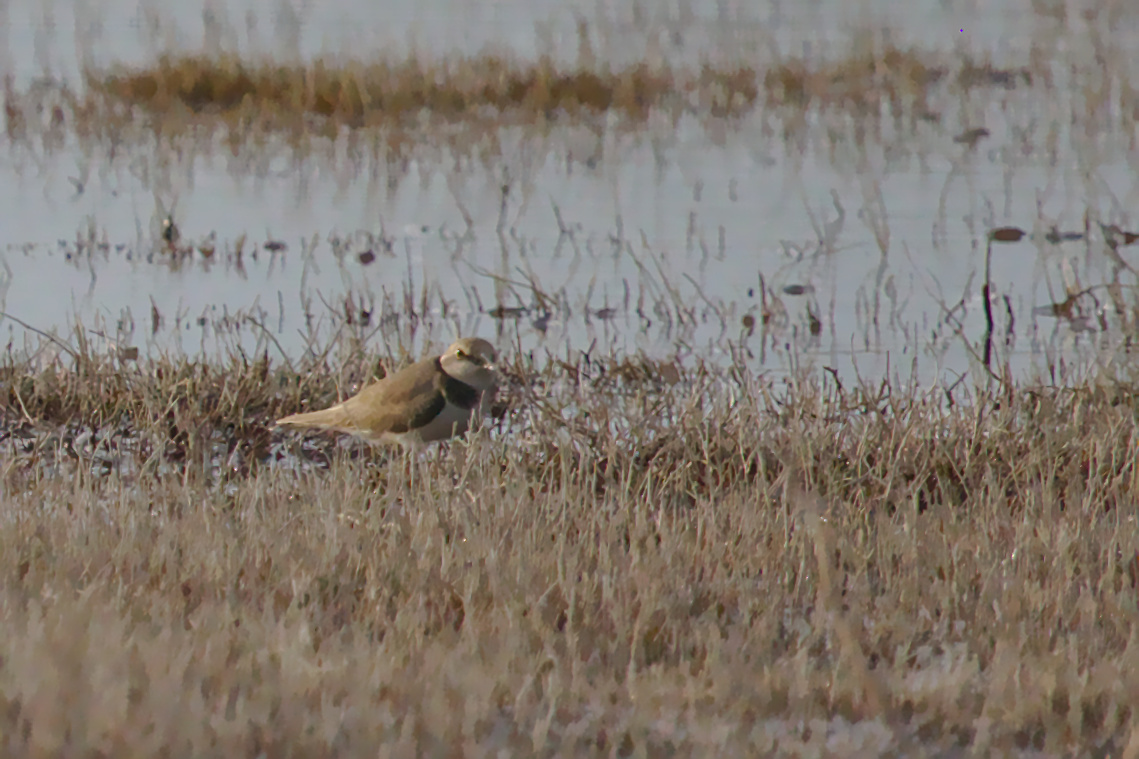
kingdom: Animalia
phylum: Chordata
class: Aves
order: Charadriiformes
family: Charadriidae
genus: Charadrius
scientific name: Charadrius dubius
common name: Little ringed plover
